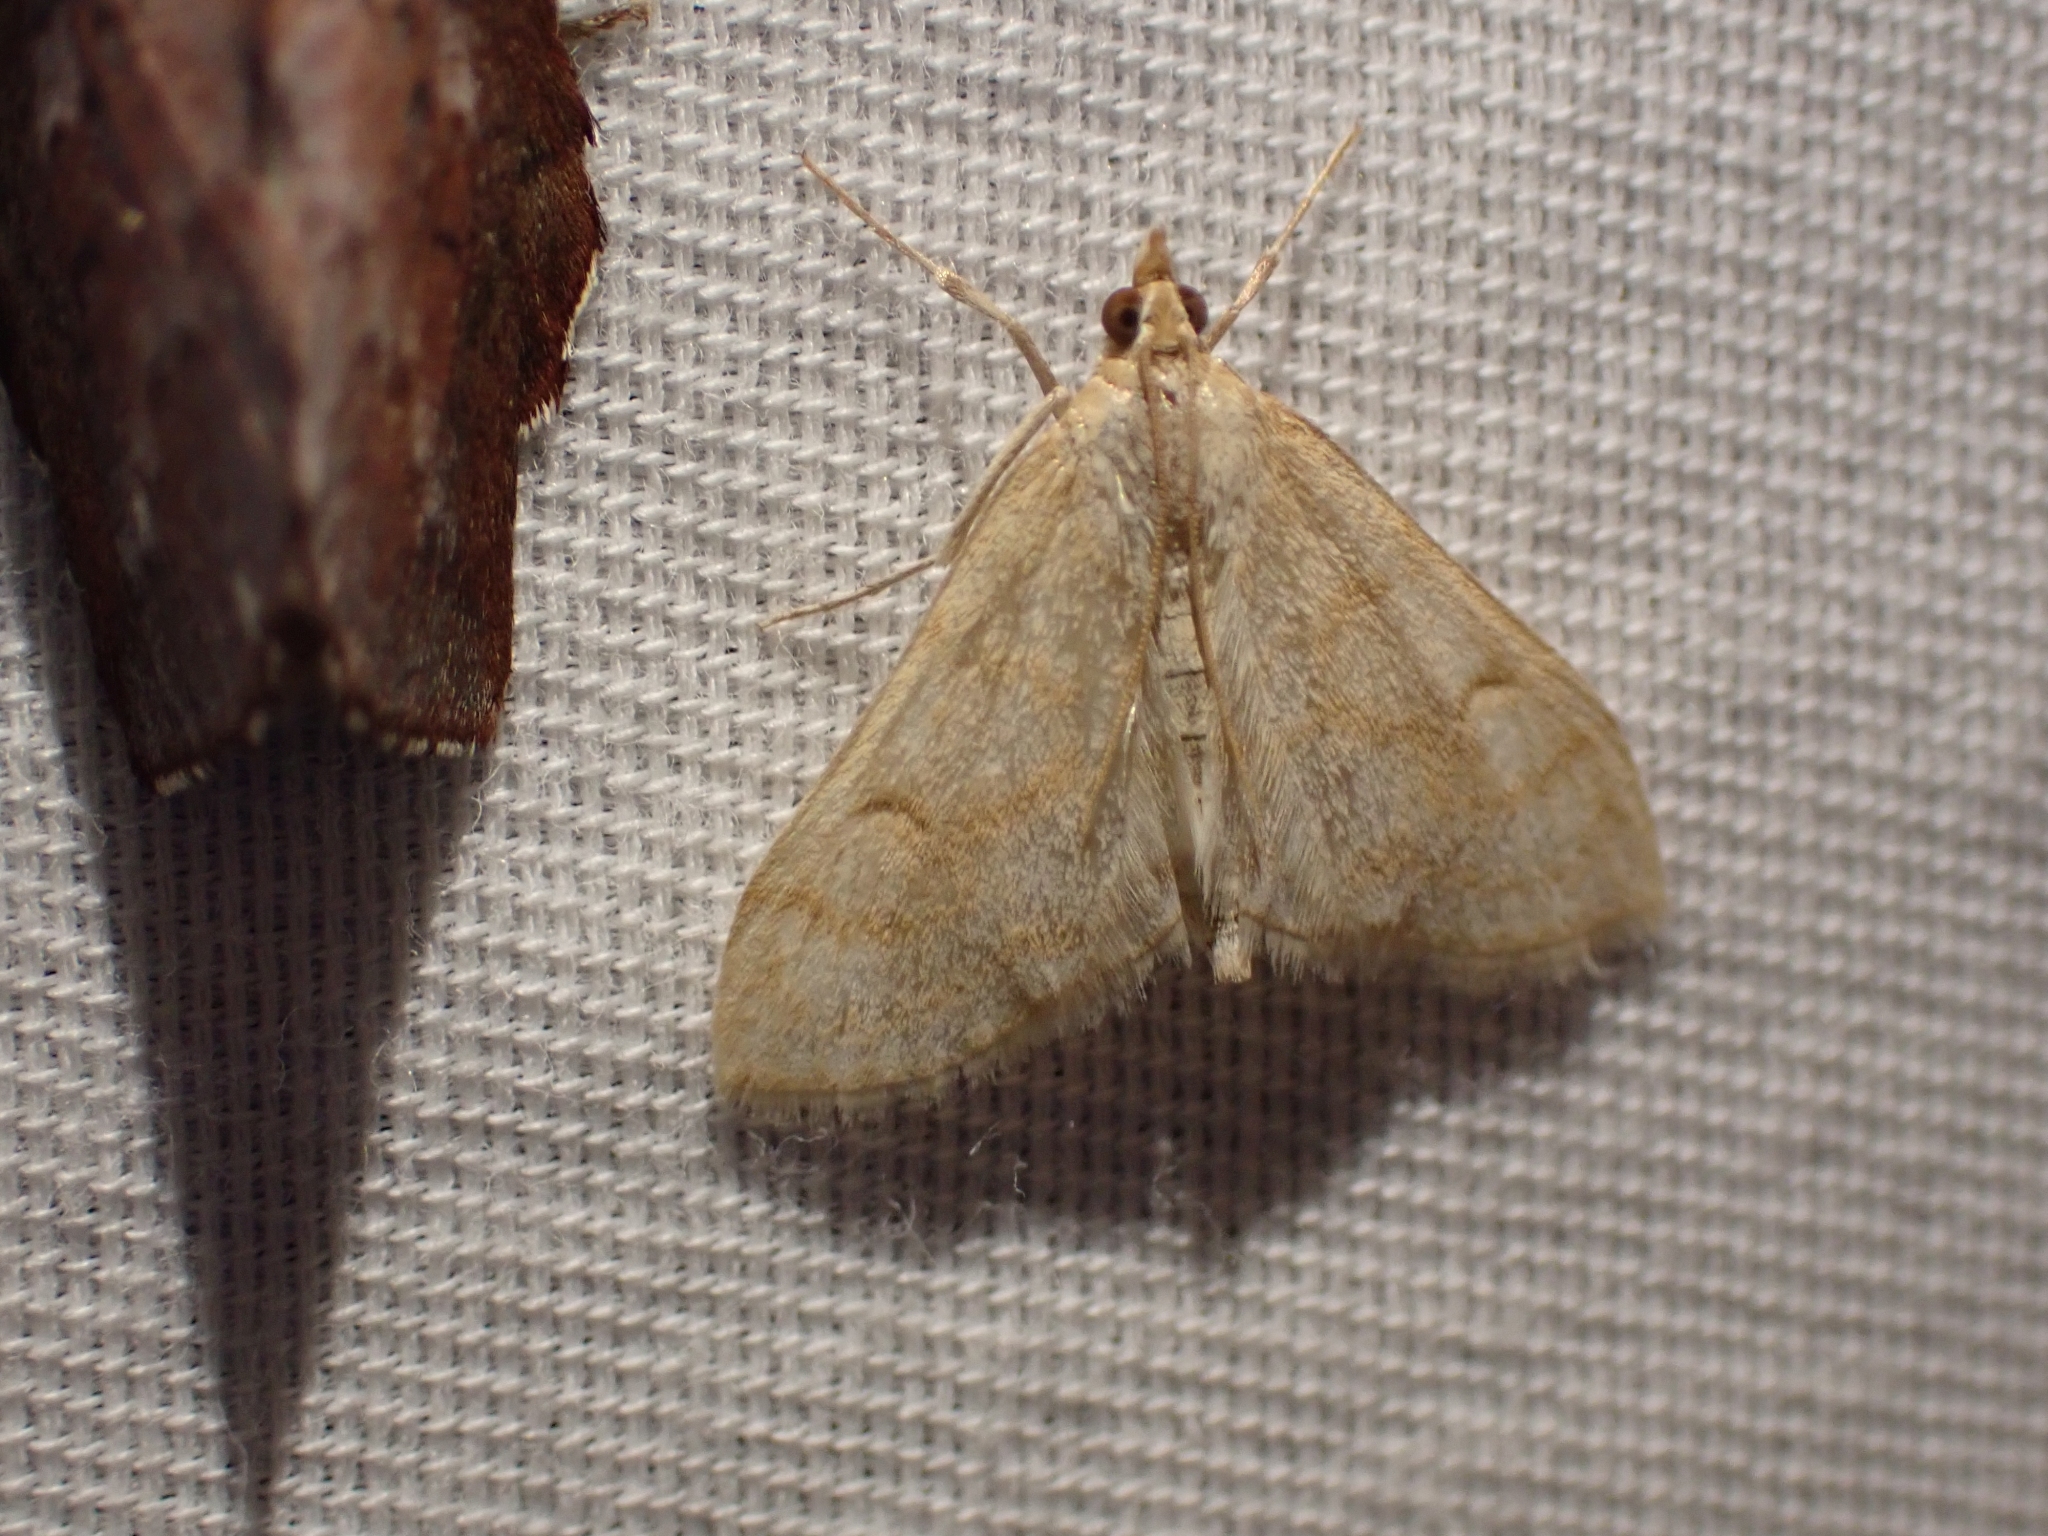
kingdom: Animalia
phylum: Arthropoda
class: Insecta
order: Lepidoptera
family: Crambidae
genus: Paracorsia
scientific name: Paracorsia repandalis
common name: Mullein moth
